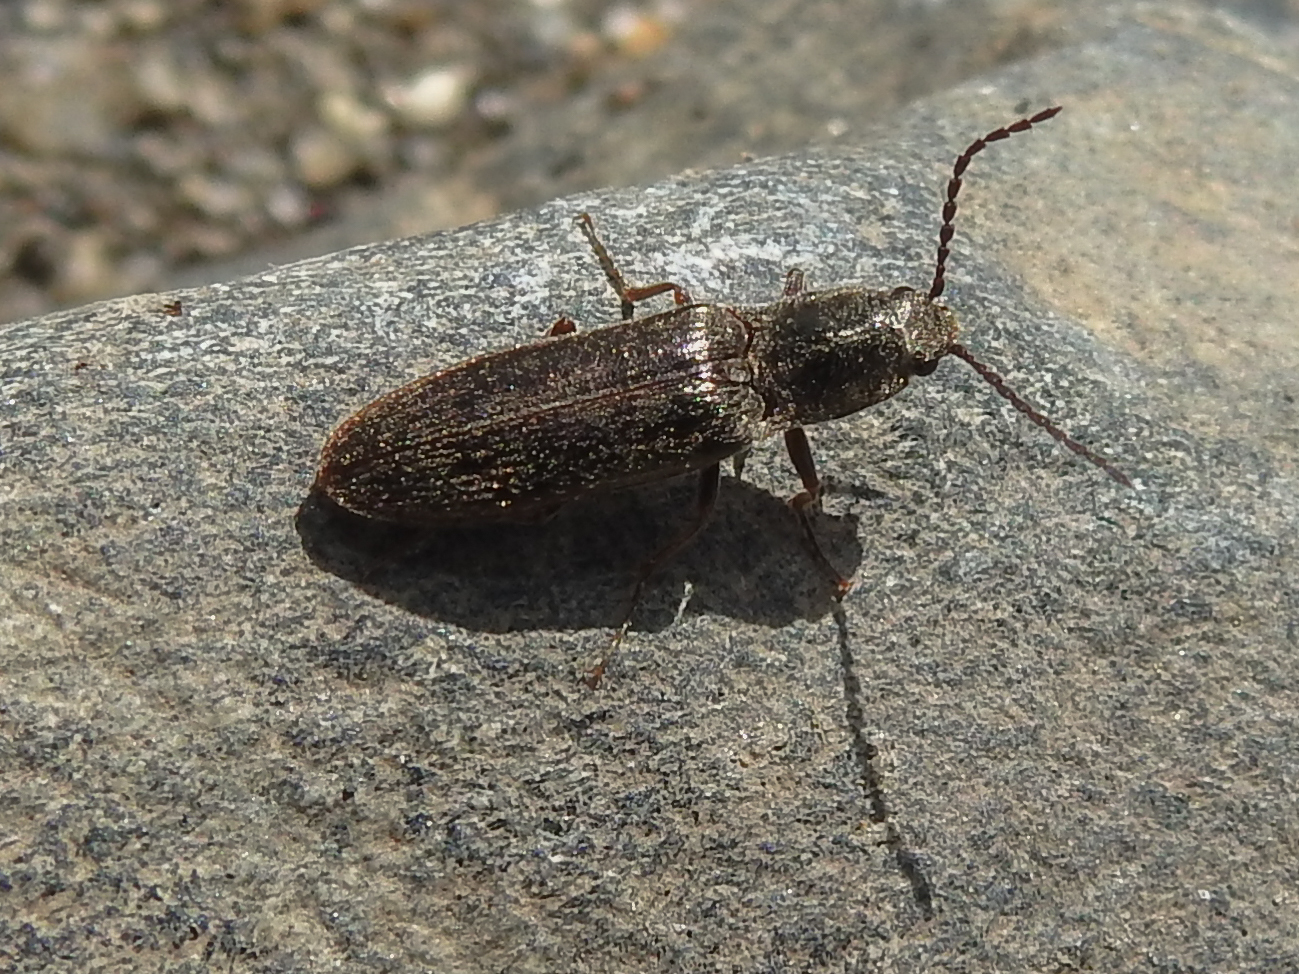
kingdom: Animalia
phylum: Arthropoda
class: Insecta
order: Coleoptera
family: Elateridae
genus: Sylvanelater
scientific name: Sylvanelater cylindriformis
